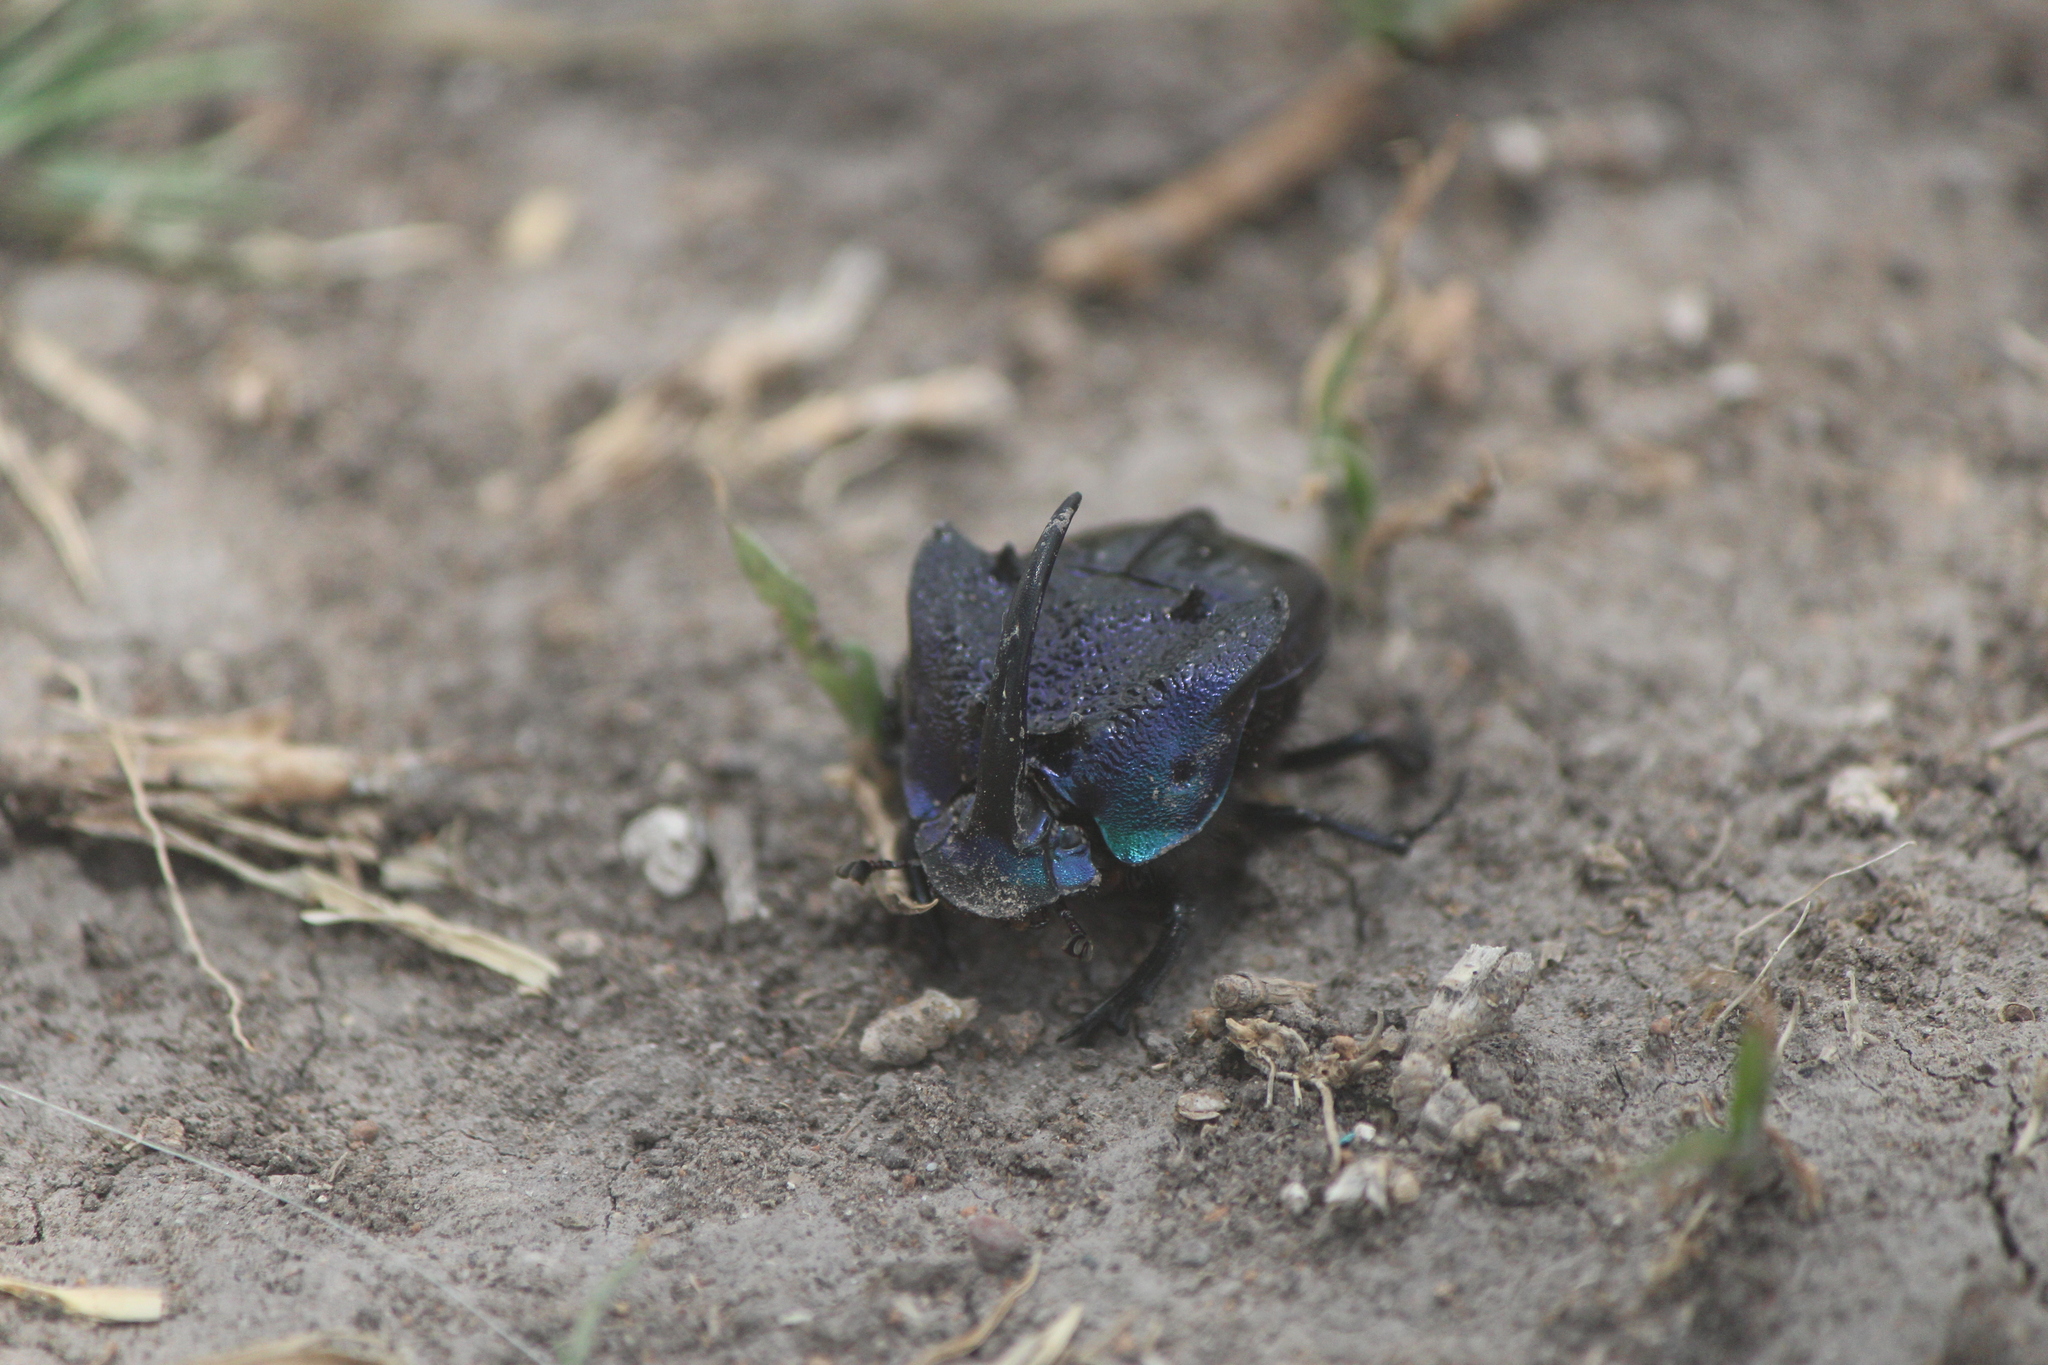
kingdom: Animalia
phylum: Arthropoda
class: Insecta
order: Coleoptera
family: Scarabaeidae
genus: Phanaeus
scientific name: Phanaeus quadridens
